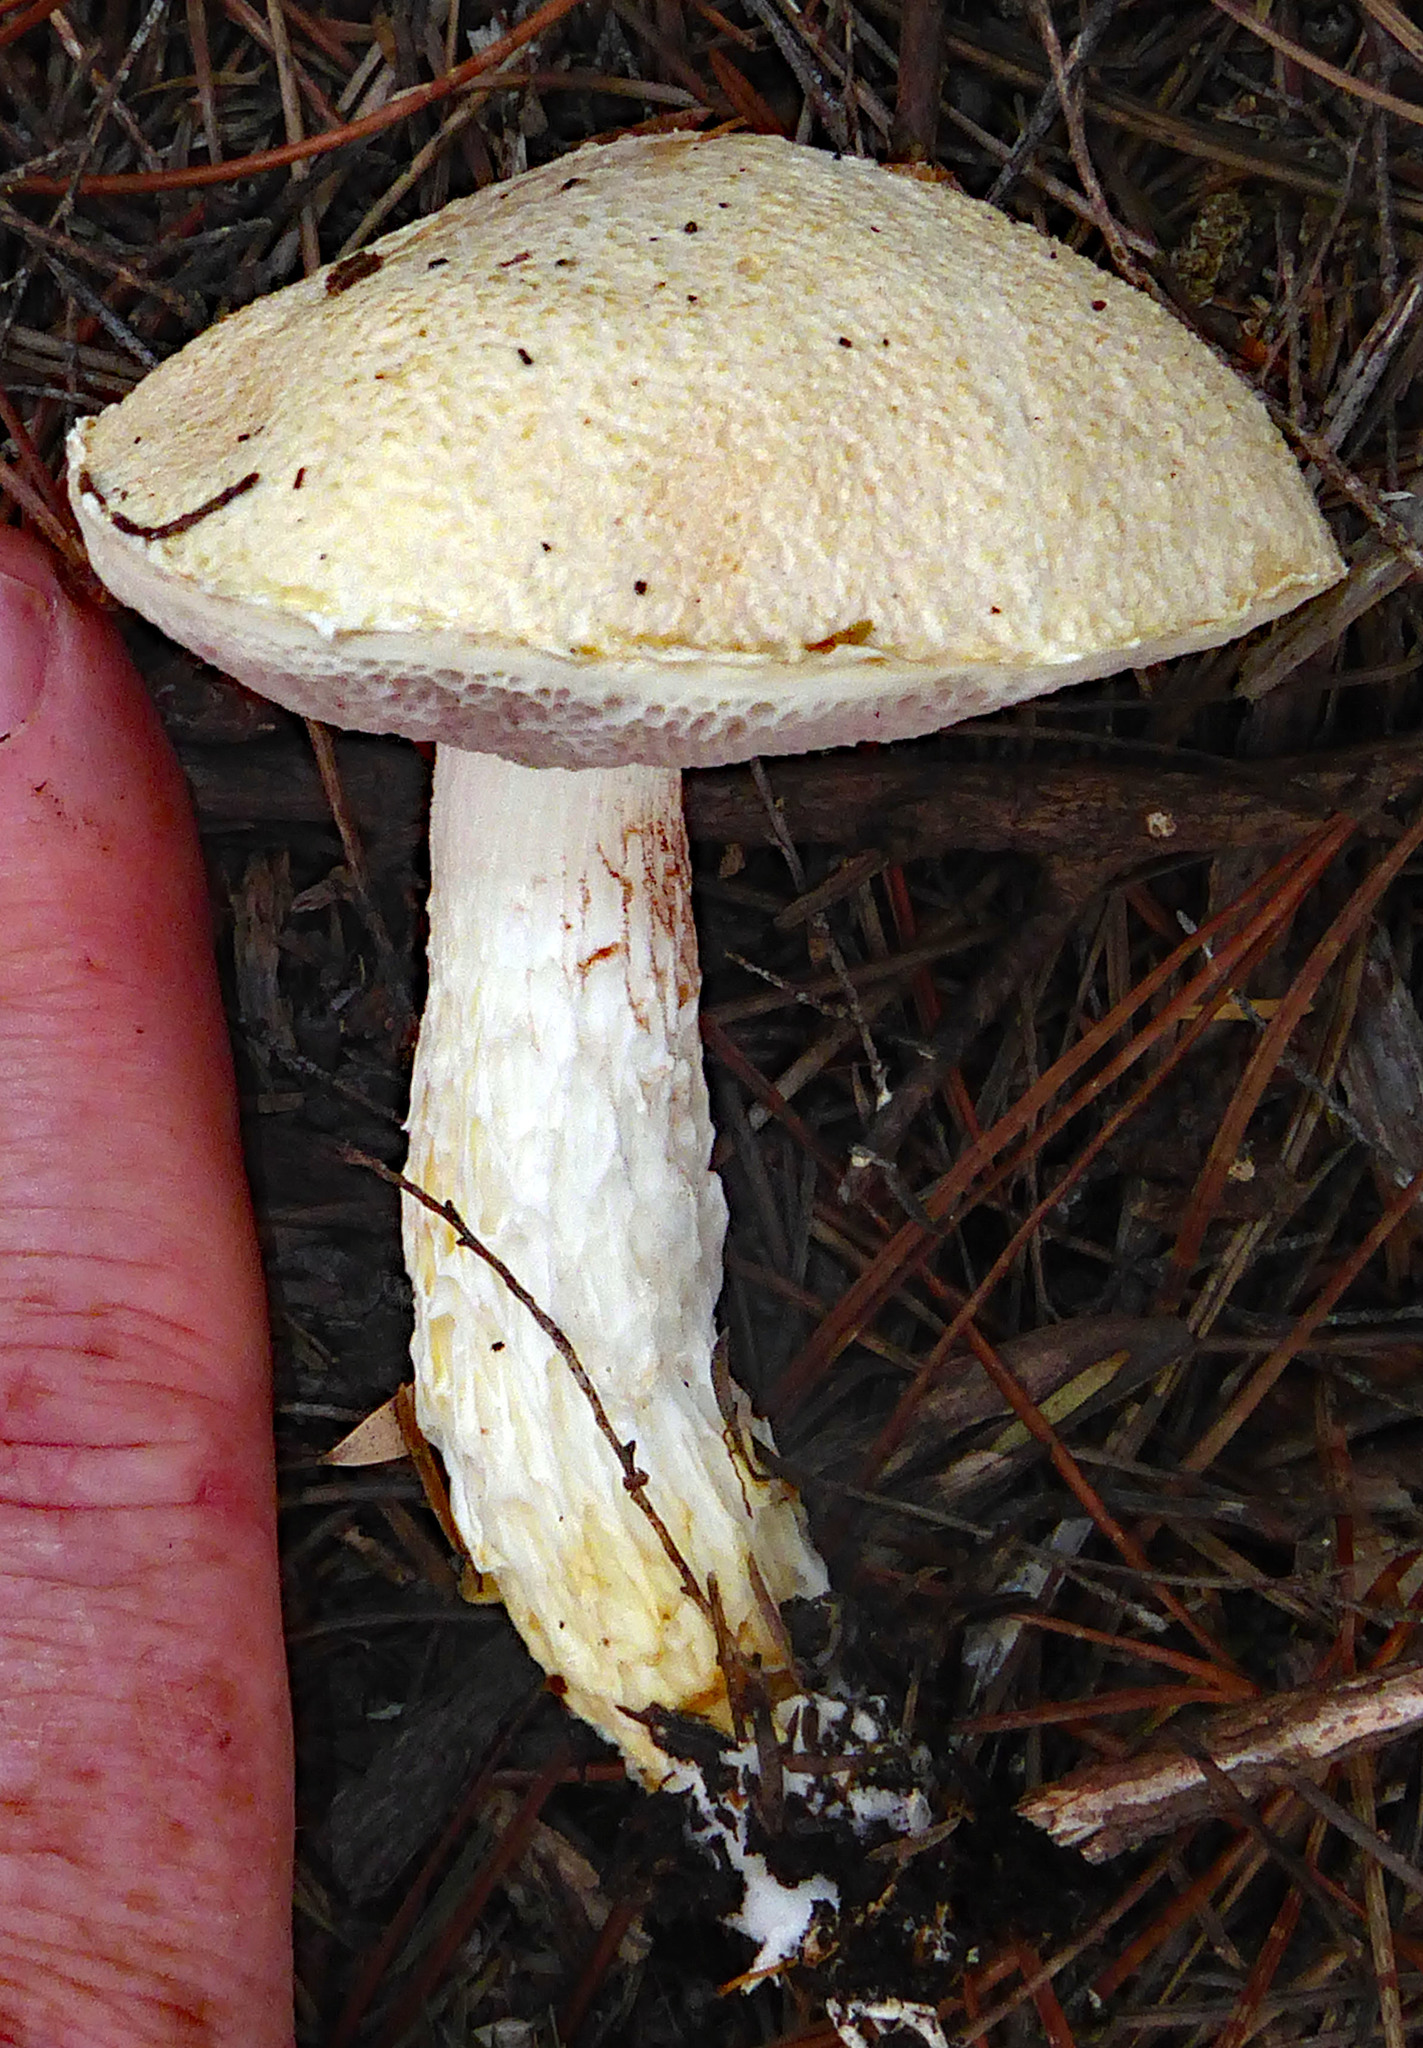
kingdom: Fungi
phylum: Basidiomycota
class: Agaricomycetes
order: Boletales
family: Boletaceae
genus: Fistulinella
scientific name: Fistulinella nivea
